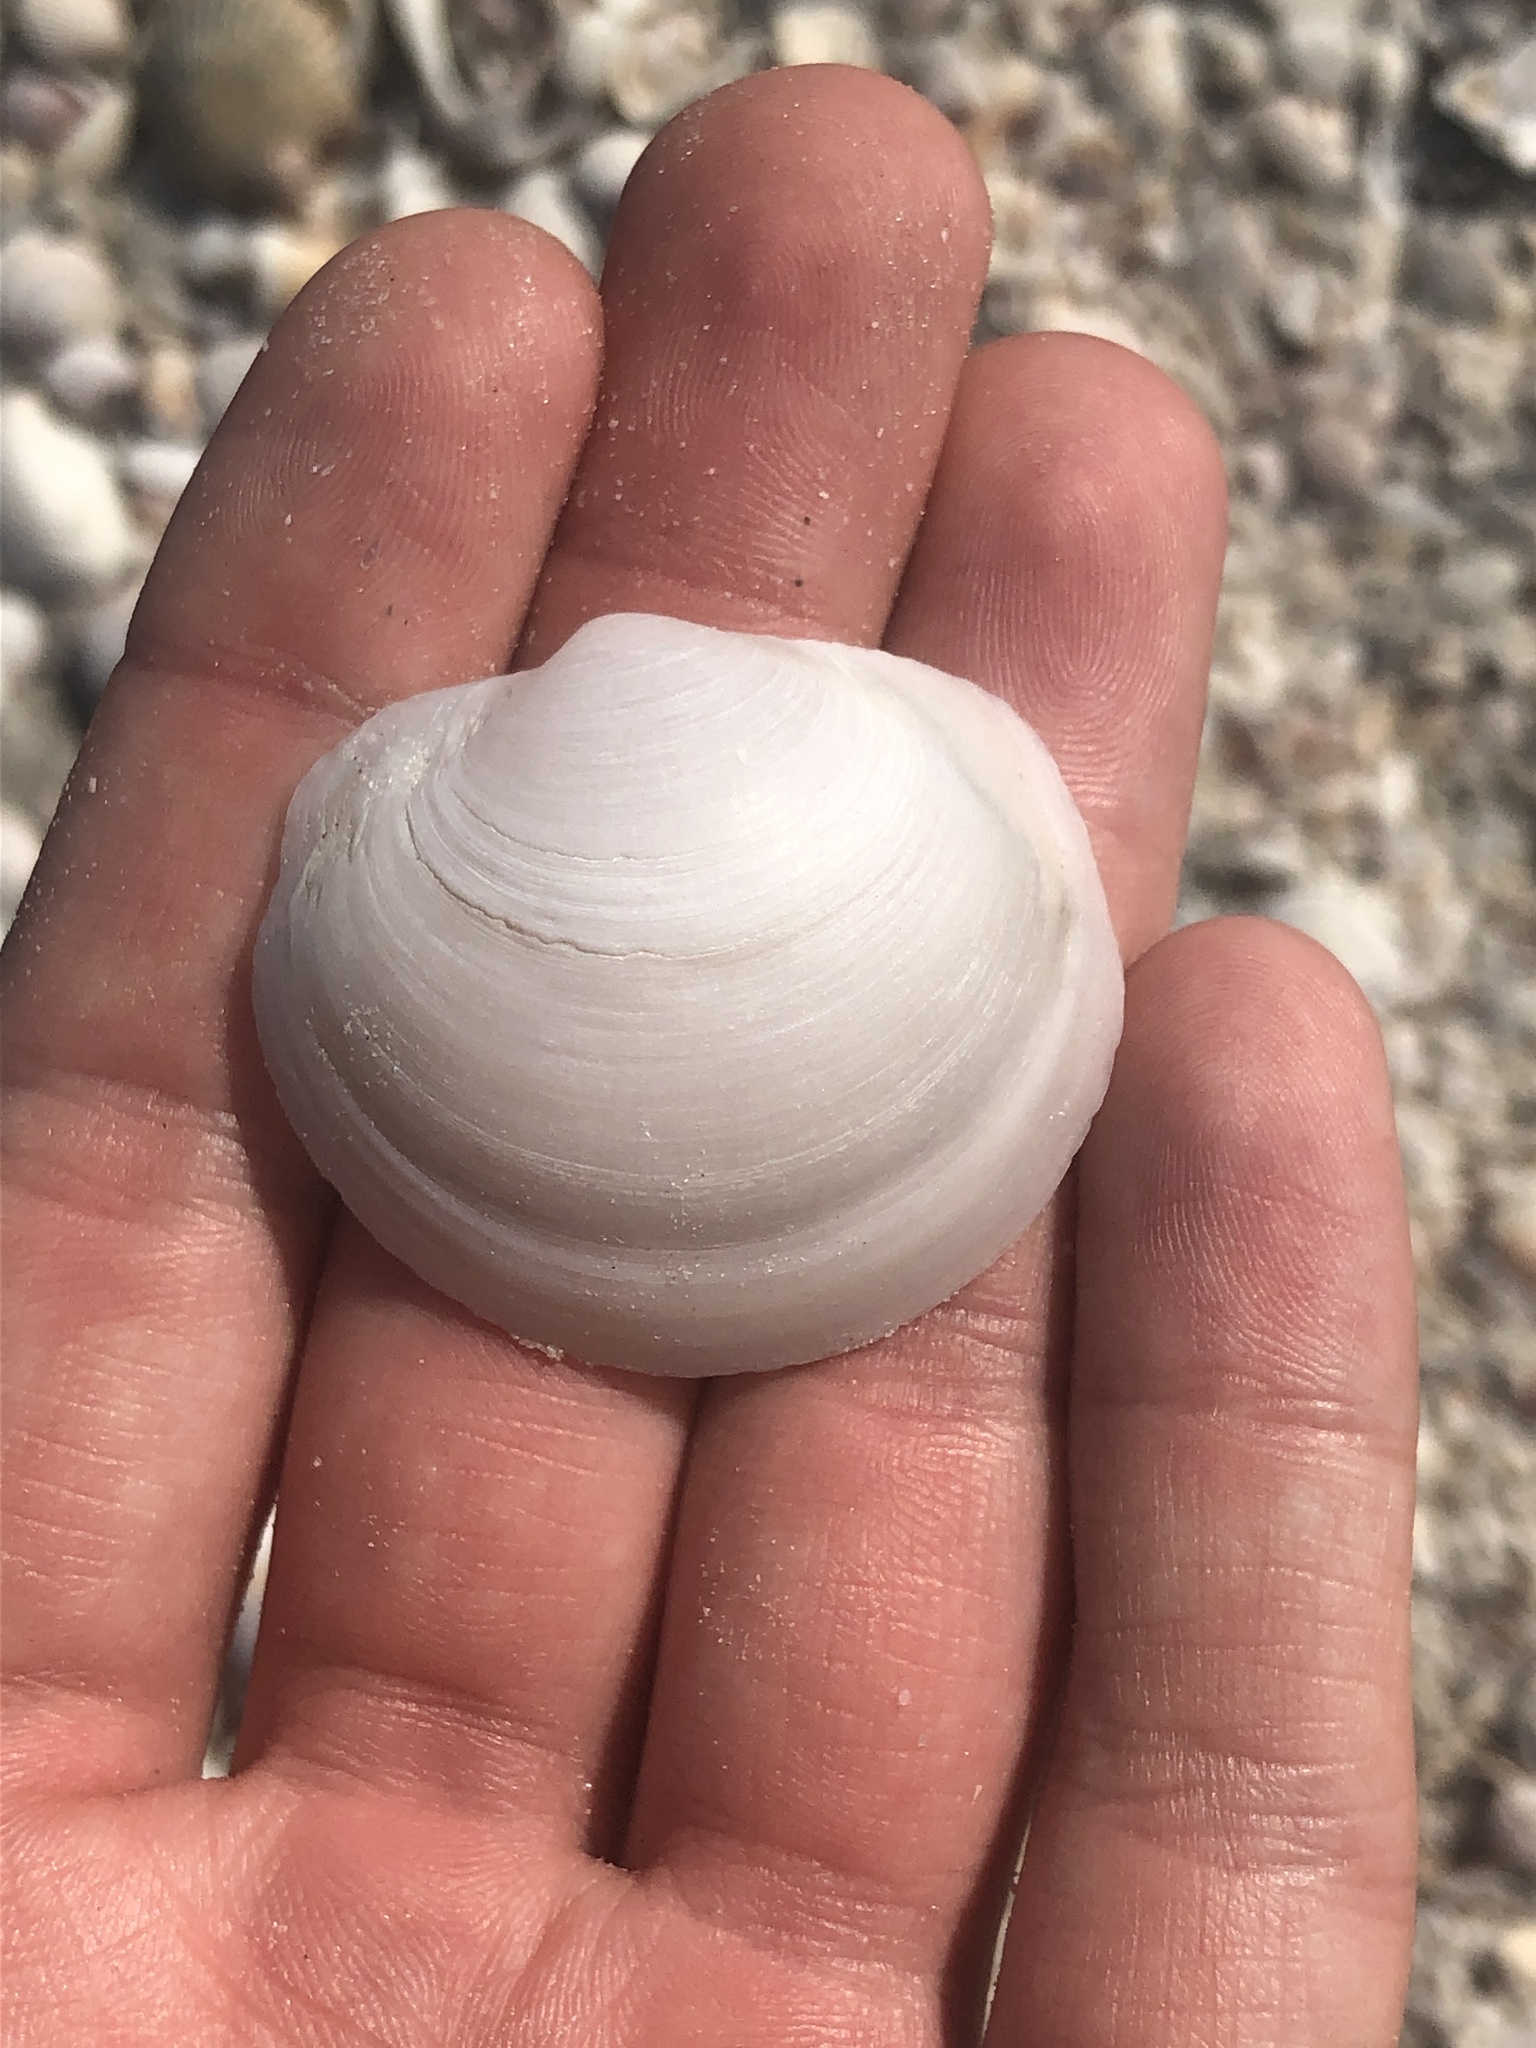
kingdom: Animalia
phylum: Mollusca
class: Bivalvia
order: Lucinida
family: Lucinidae
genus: Anodontia
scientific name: Anodontia alba
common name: Buttercup lucine
